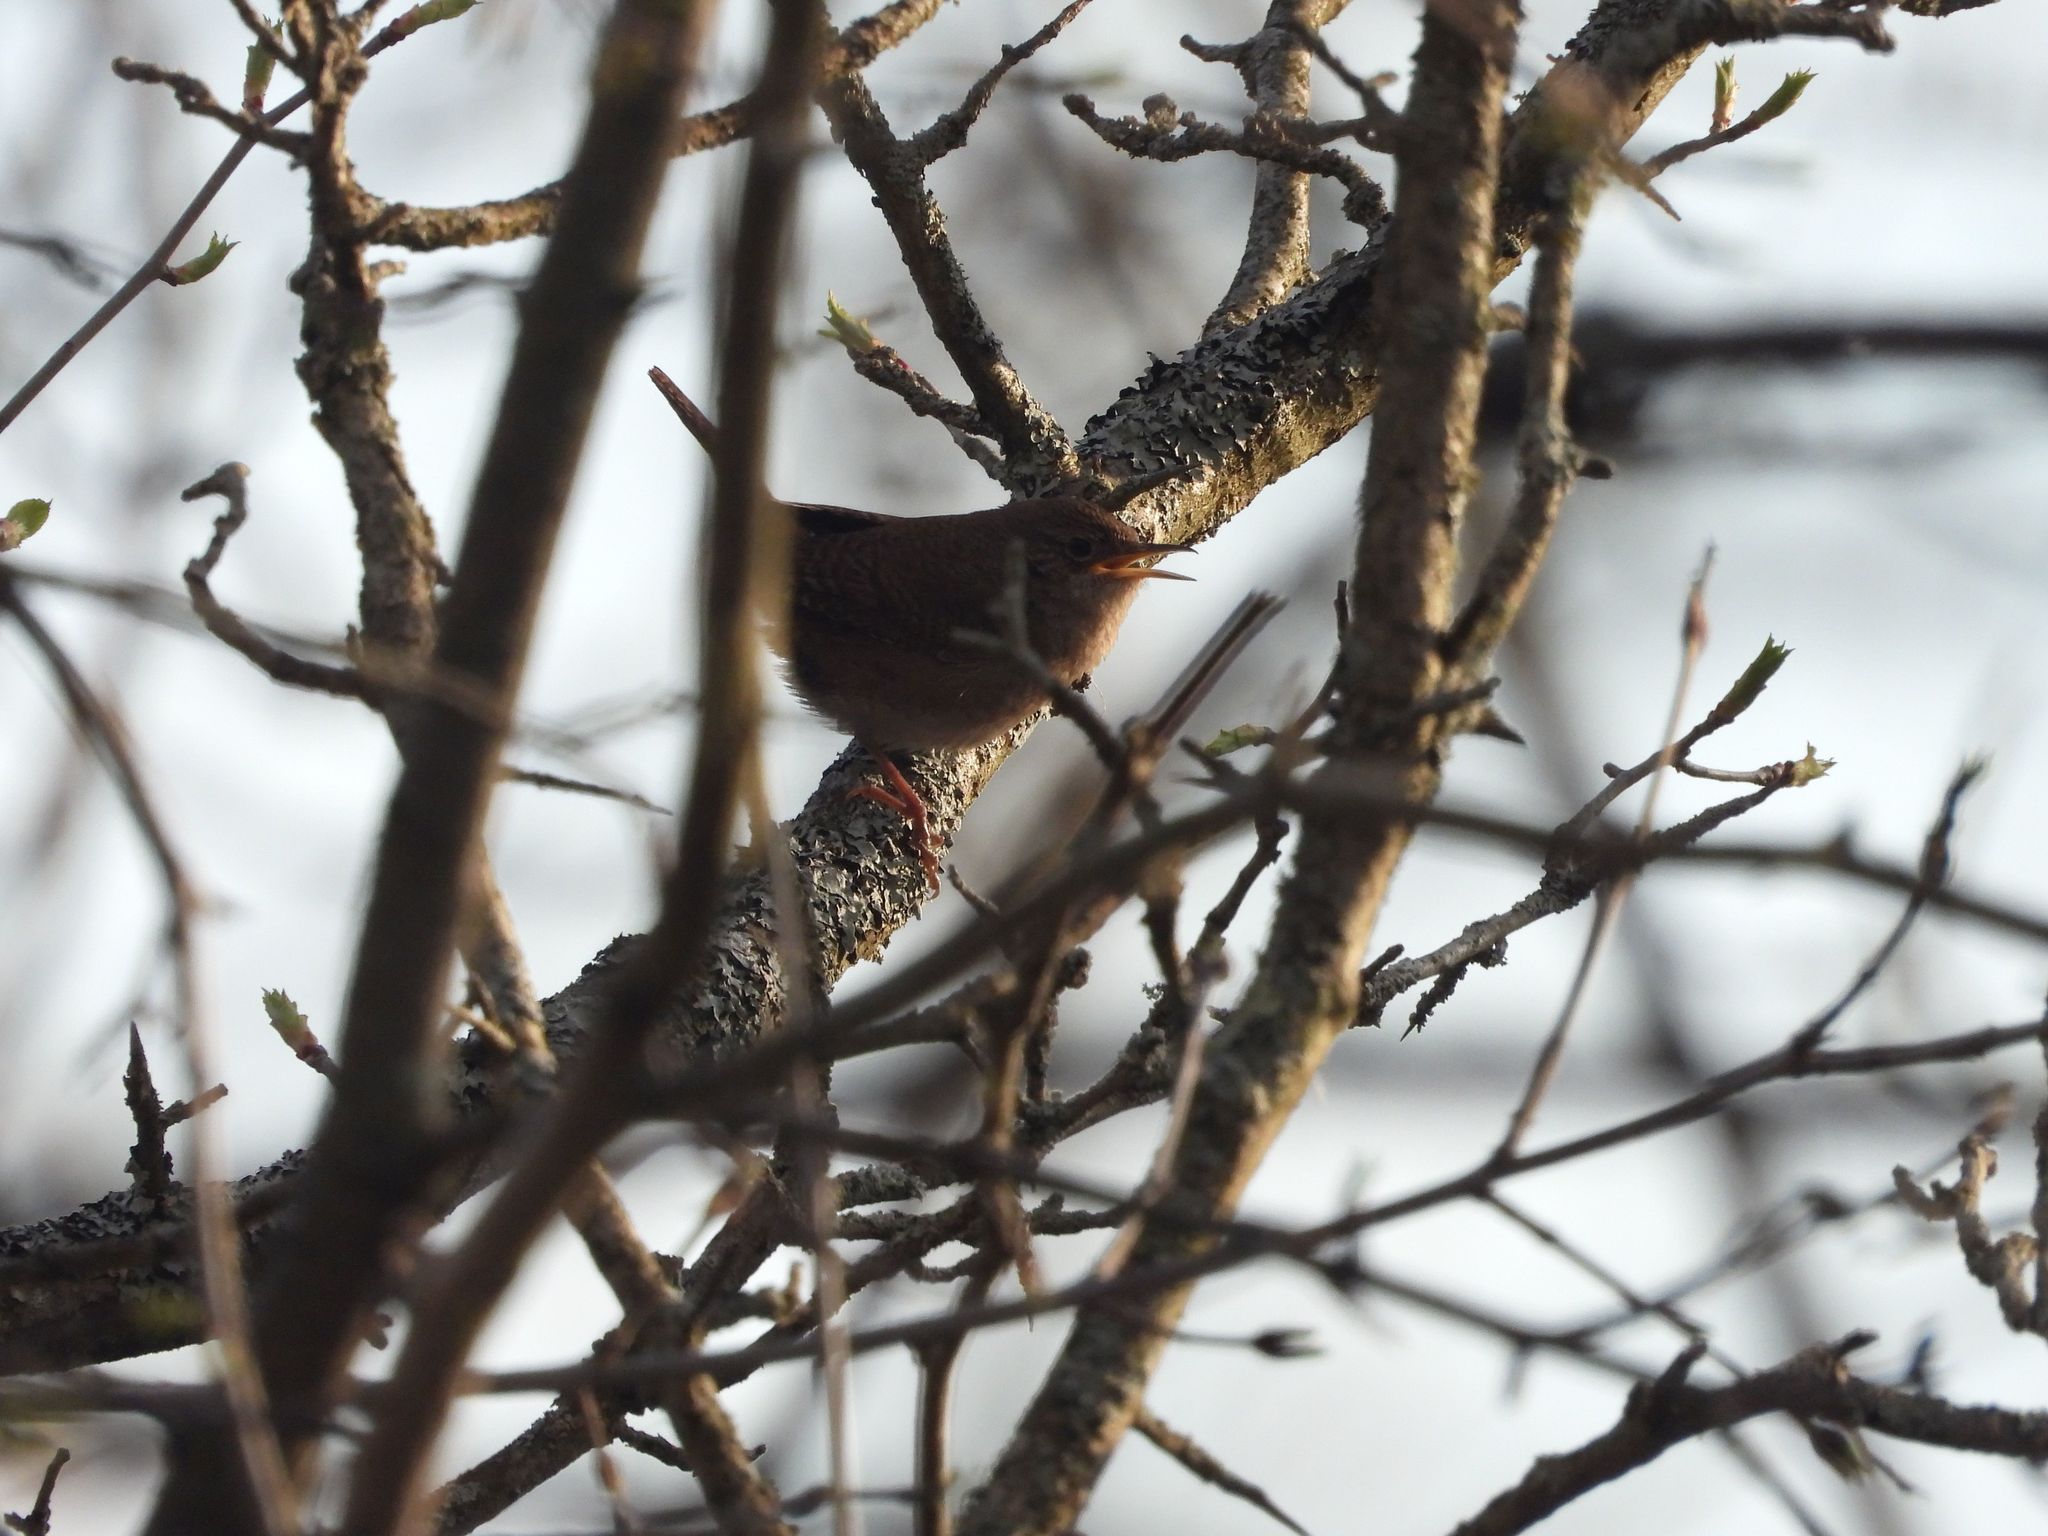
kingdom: Animalia
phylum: Chordata
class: Aves
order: Passeriformes
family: Troglodytidae
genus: Troglodytes
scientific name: Troglodytes aedon
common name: House wren
